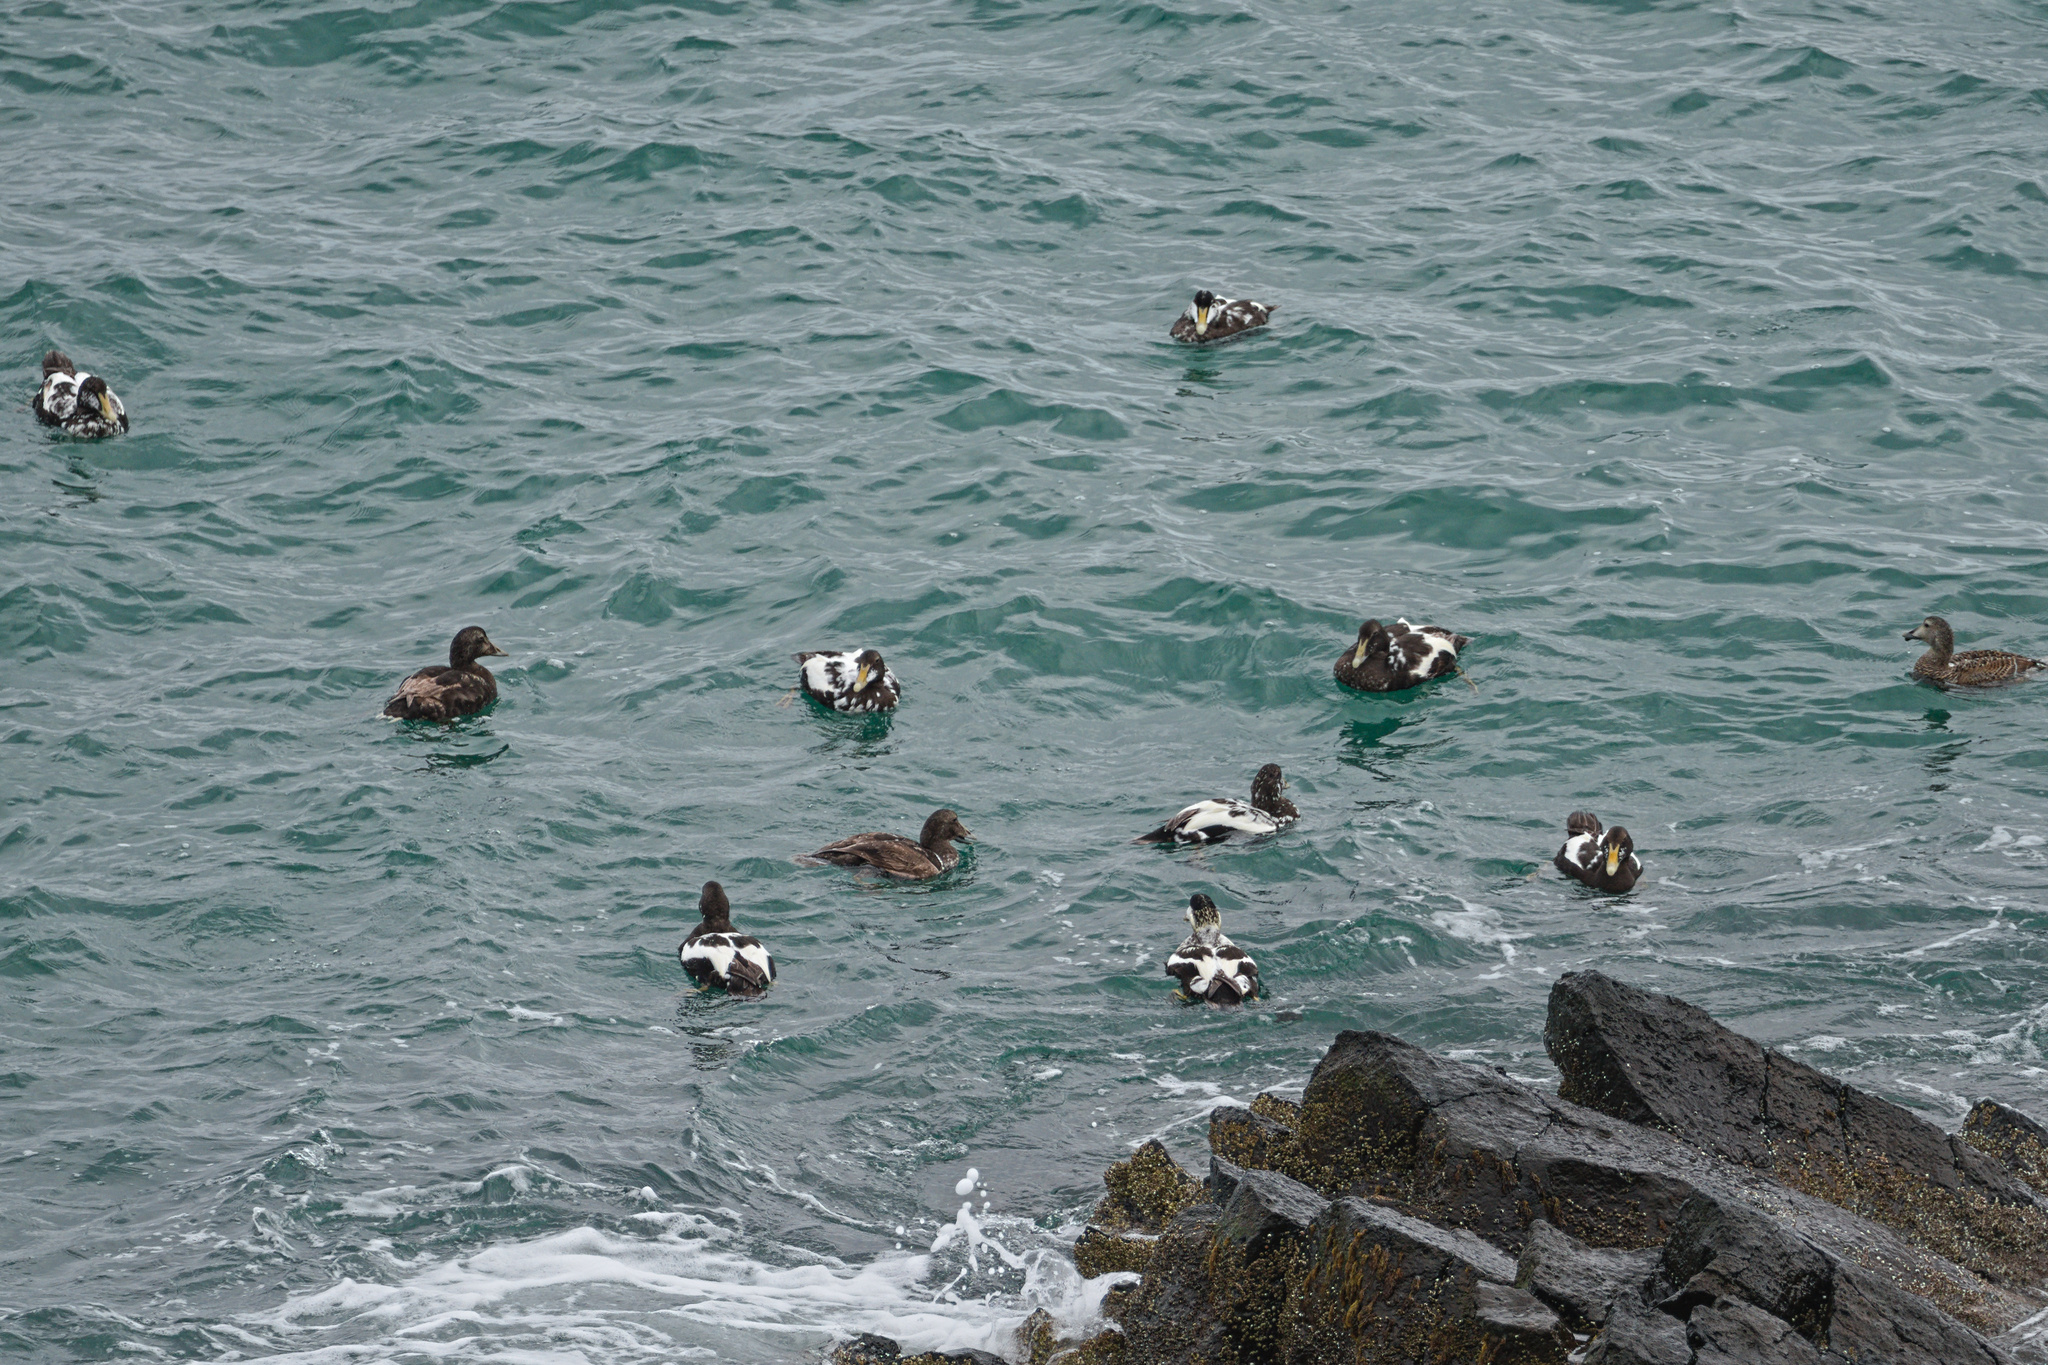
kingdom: Animalia
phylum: Chordata
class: Aves
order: Anseriformes
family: Anatidae
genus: Somateria
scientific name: Somateria mollissima
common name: Common eider
